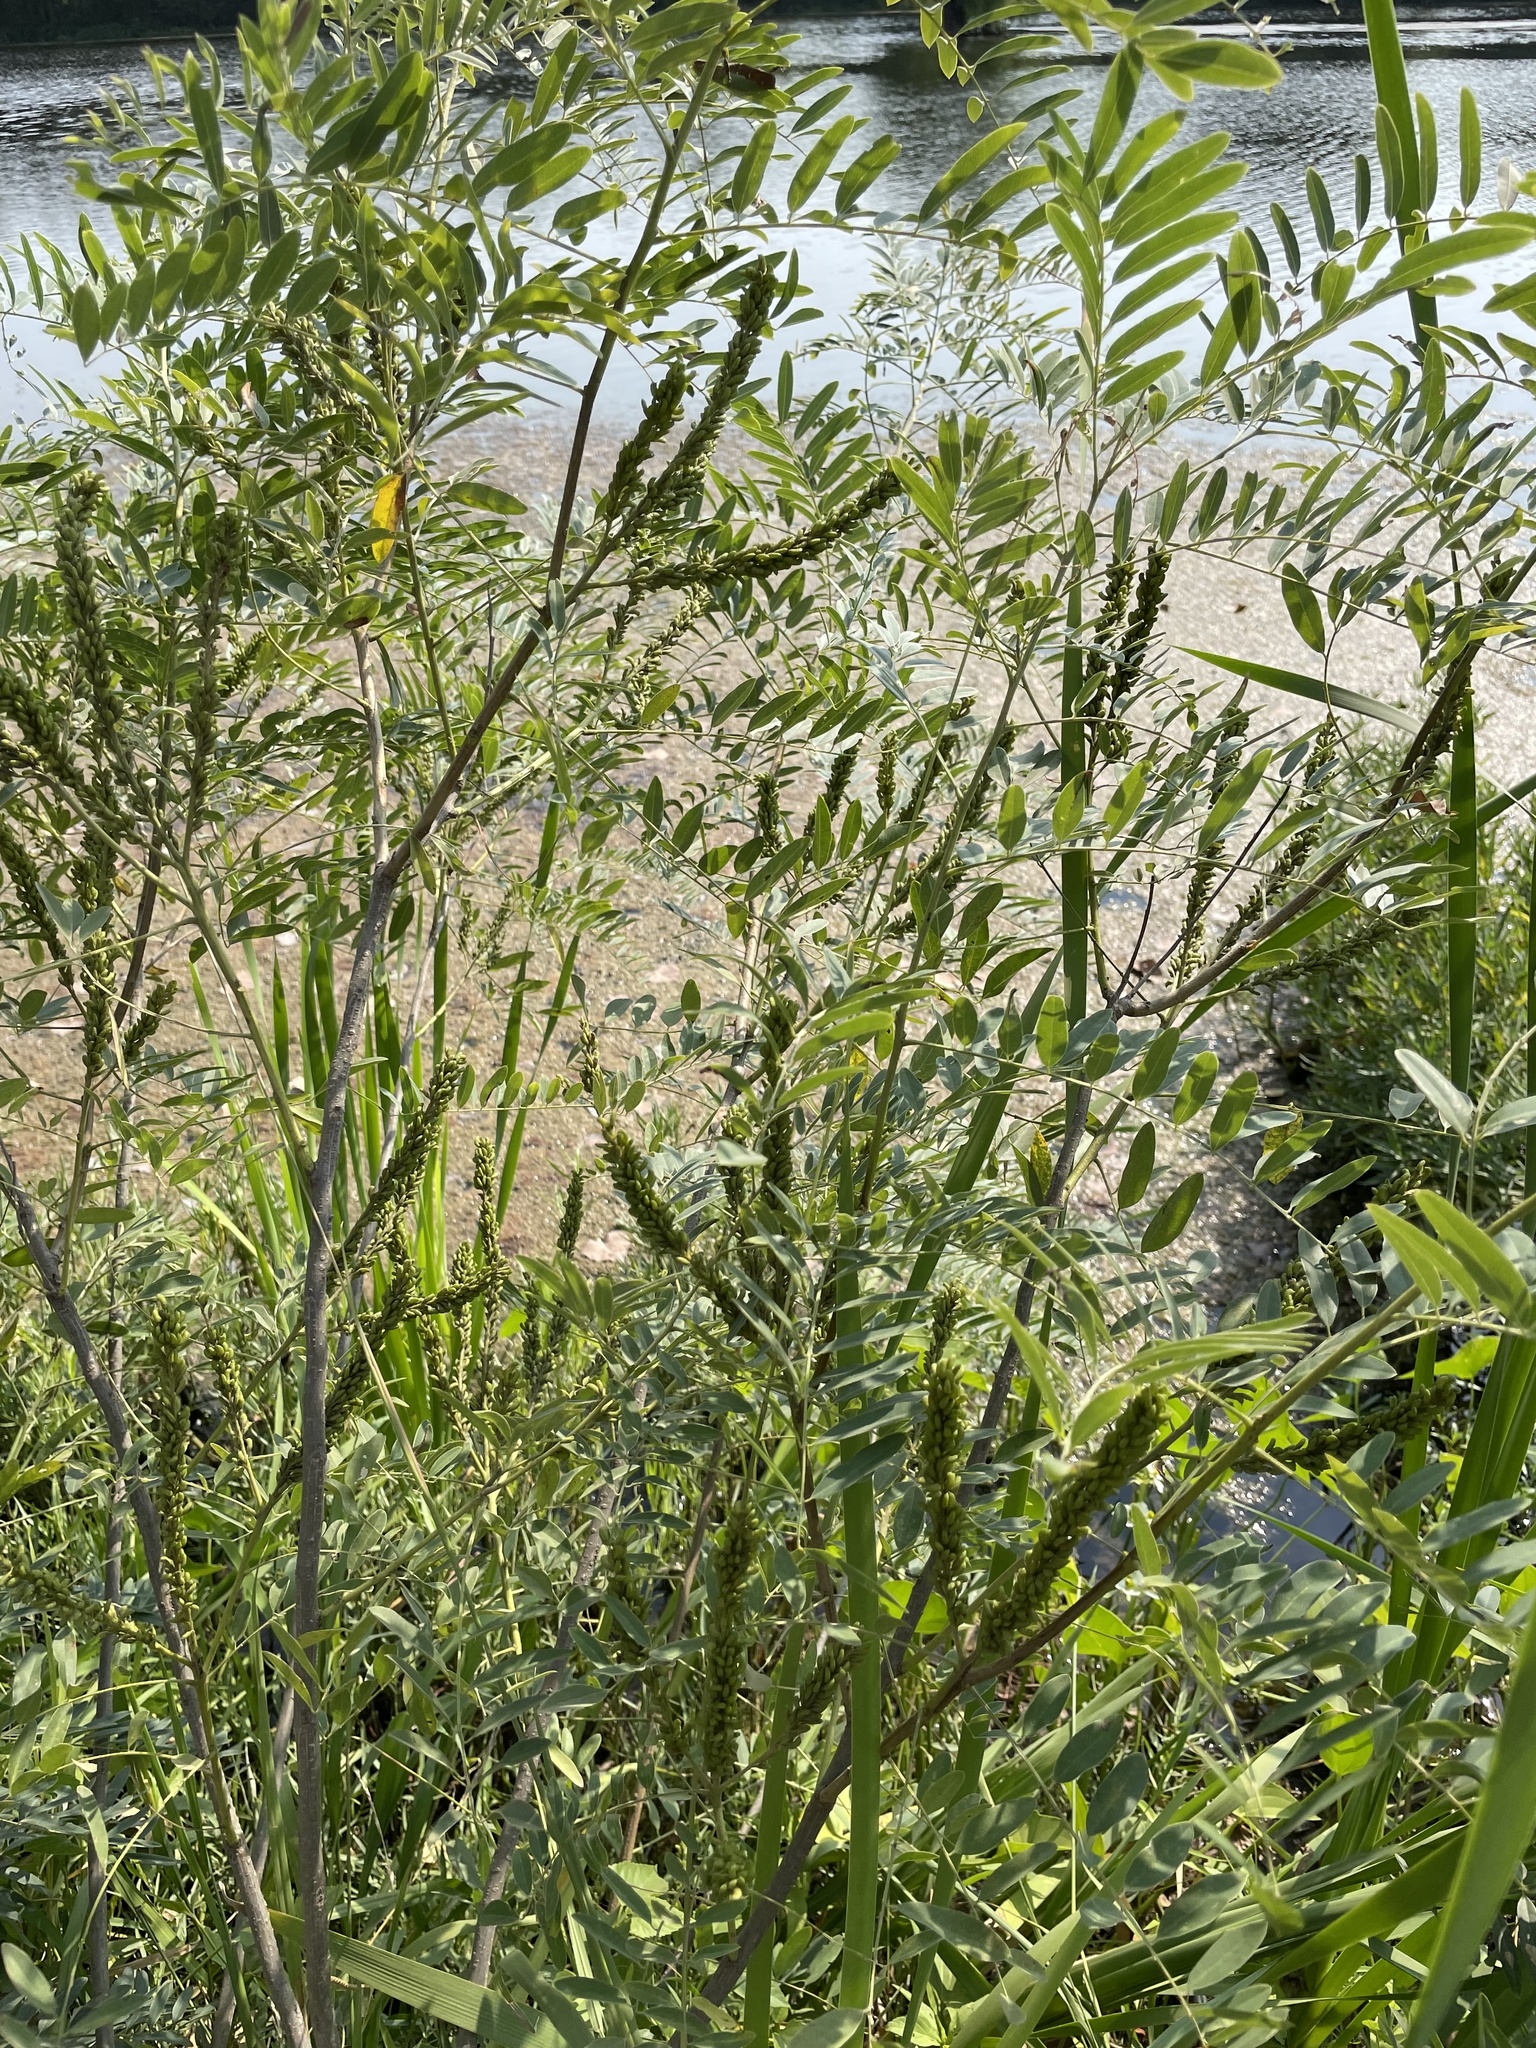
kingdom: Plantae
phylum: Tracheophyta
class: Magnoliopsida
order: Fabales
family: Fabaceae
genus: Amorpha
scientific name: Amorpha fruticosa
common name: False indigo
